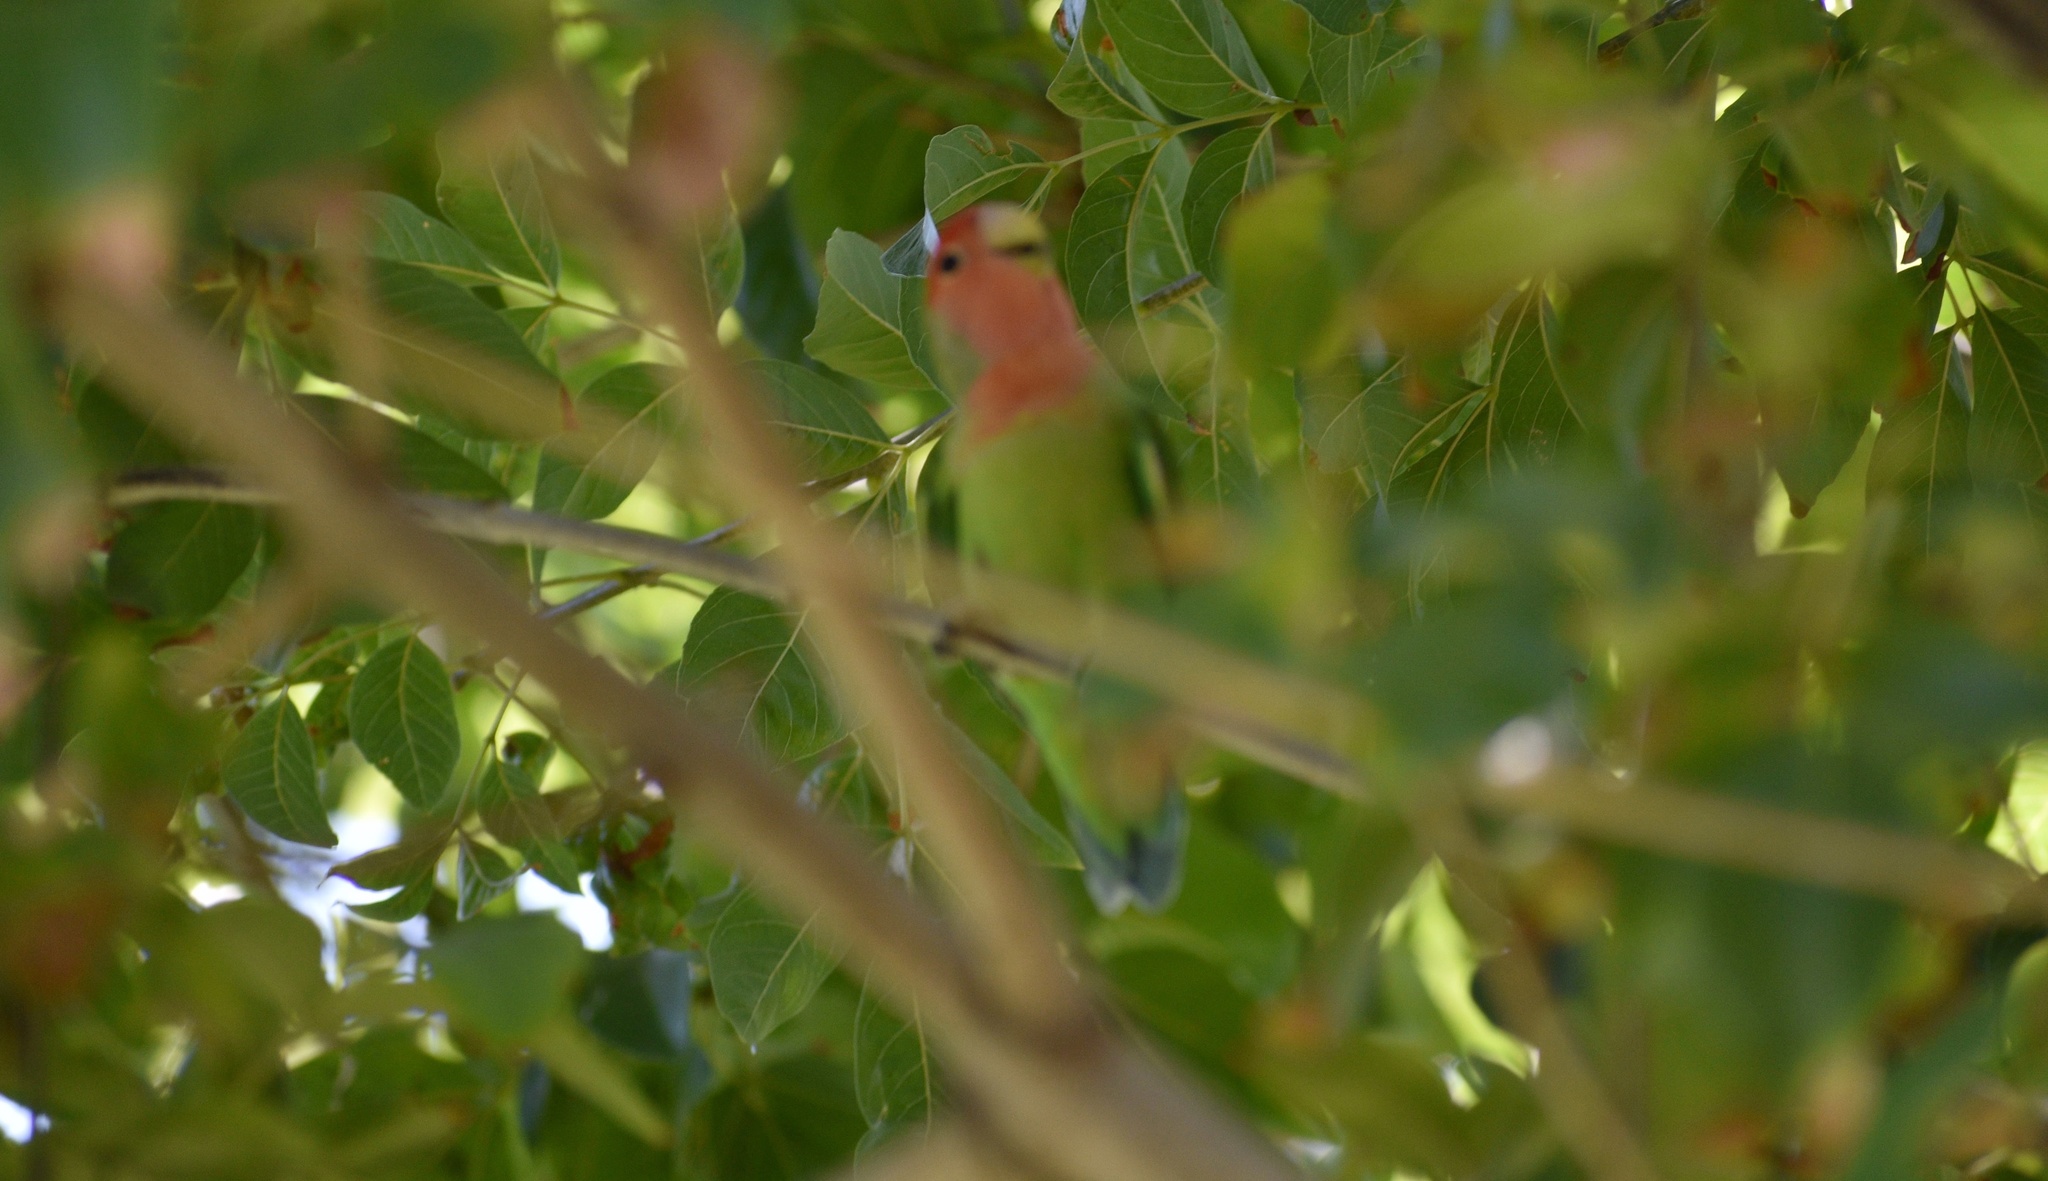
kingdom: Animalia
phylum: Chordata
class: Aves
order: Psittaciformes
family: Psittacidae
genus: Agapornis
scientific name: Agapornis roseicollis
